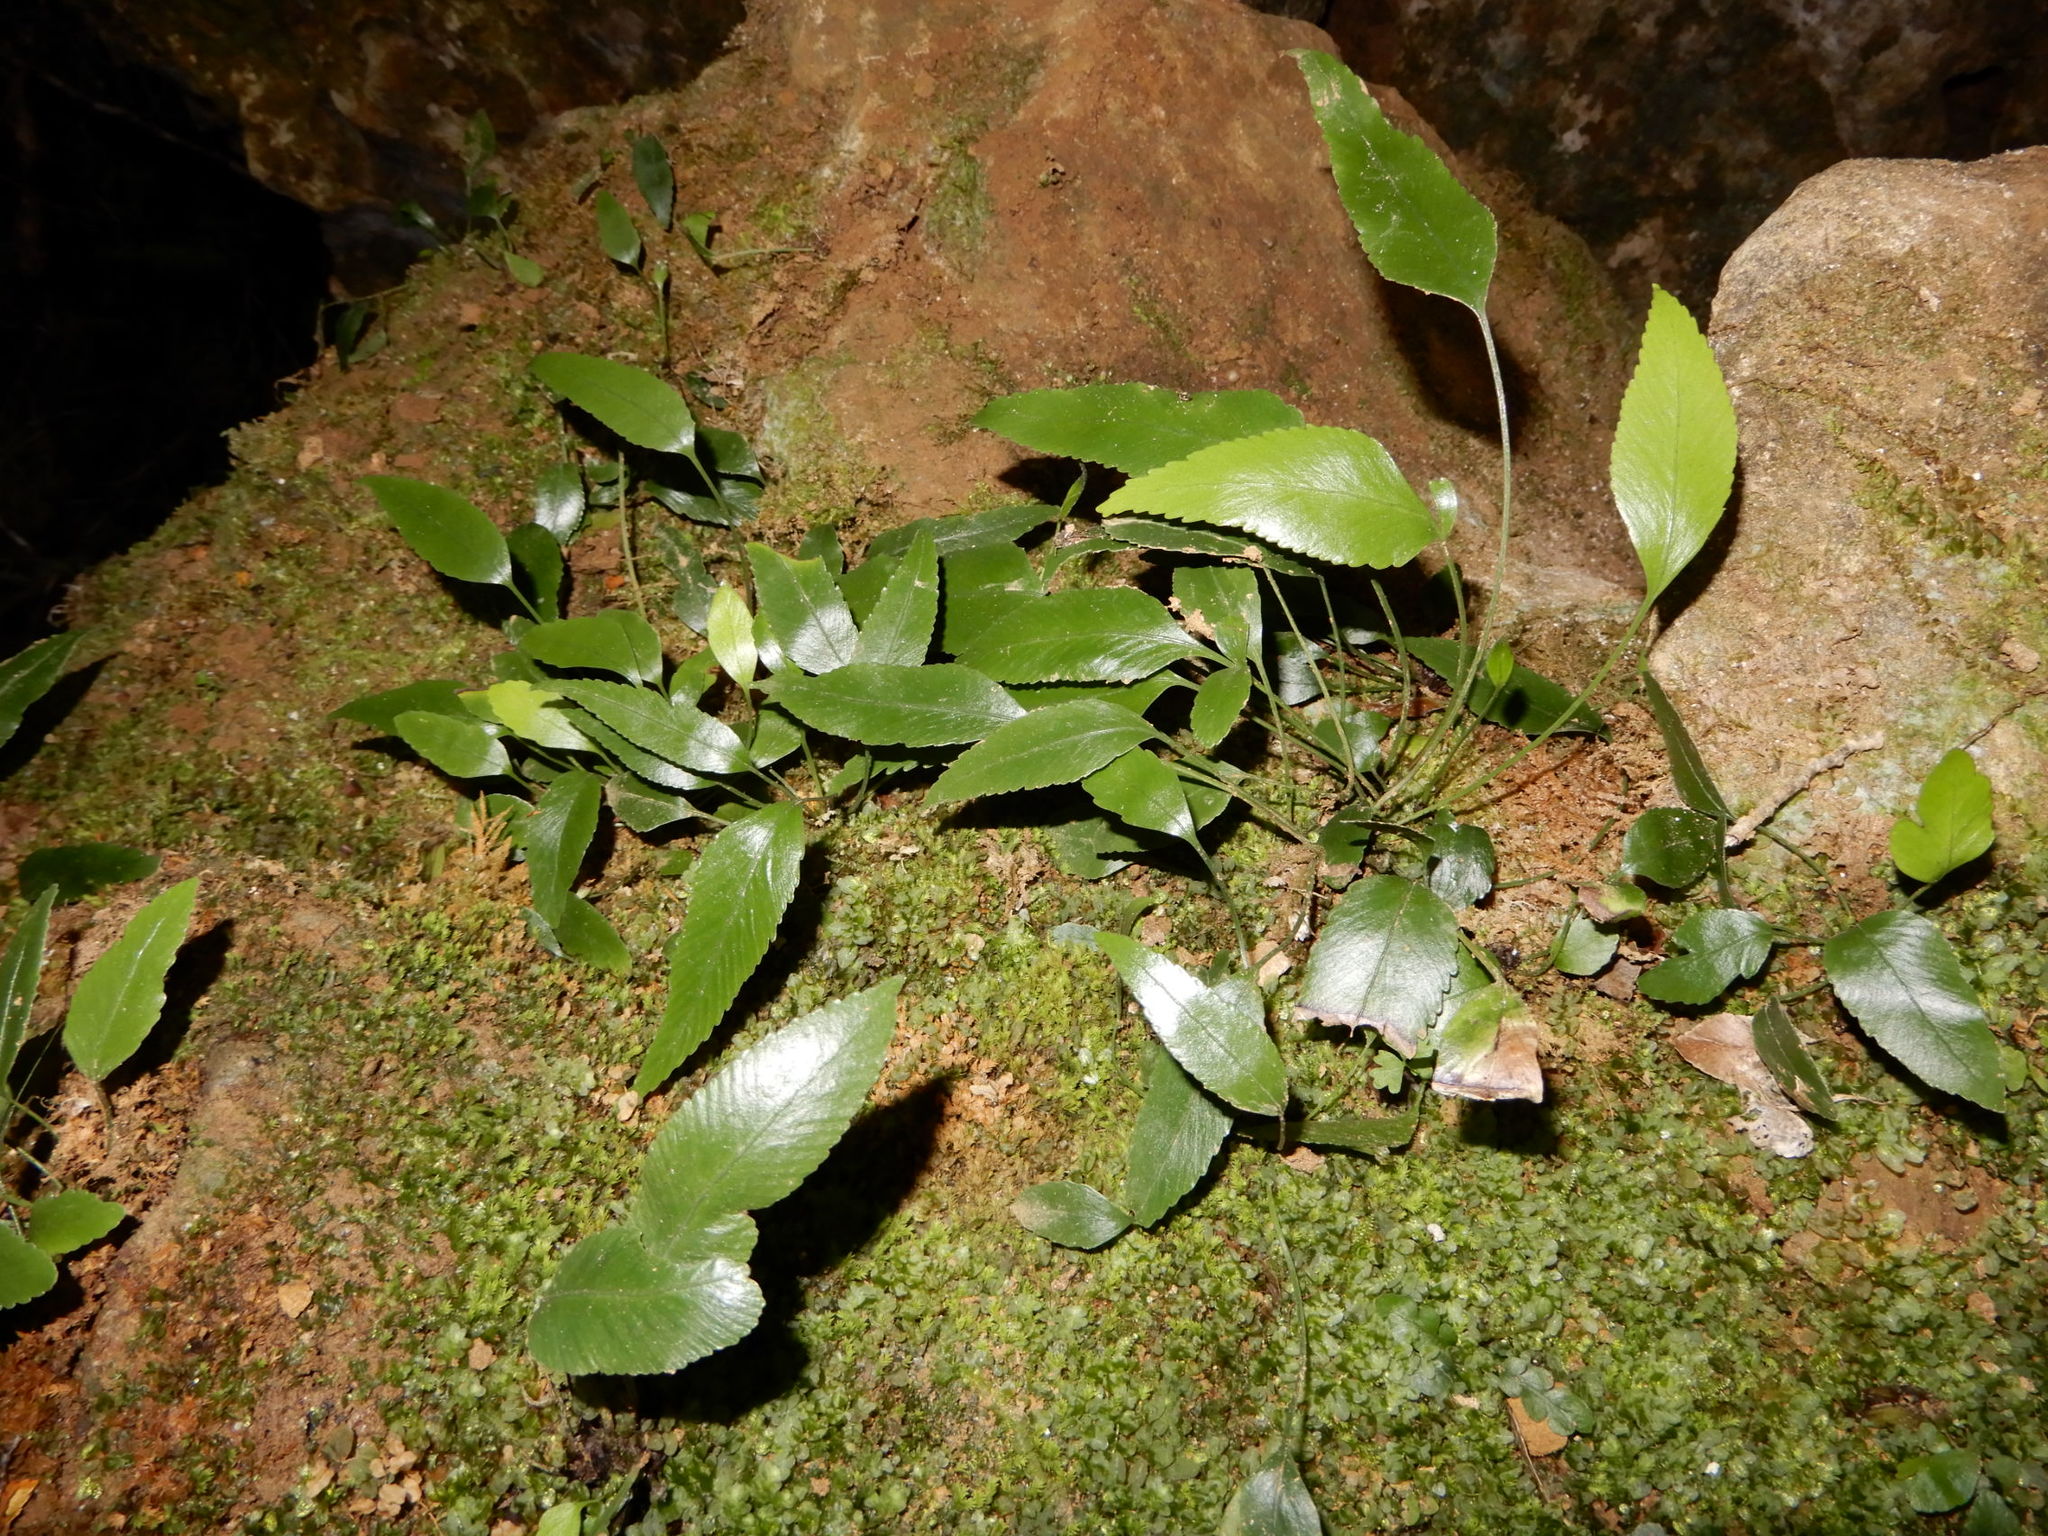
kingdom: Plantae
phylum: Tracheophyta
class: Polypodiopsida
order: Polypodiales
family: Aspleniaceae
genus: Asplenium
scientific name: Asplenium lepidotum
